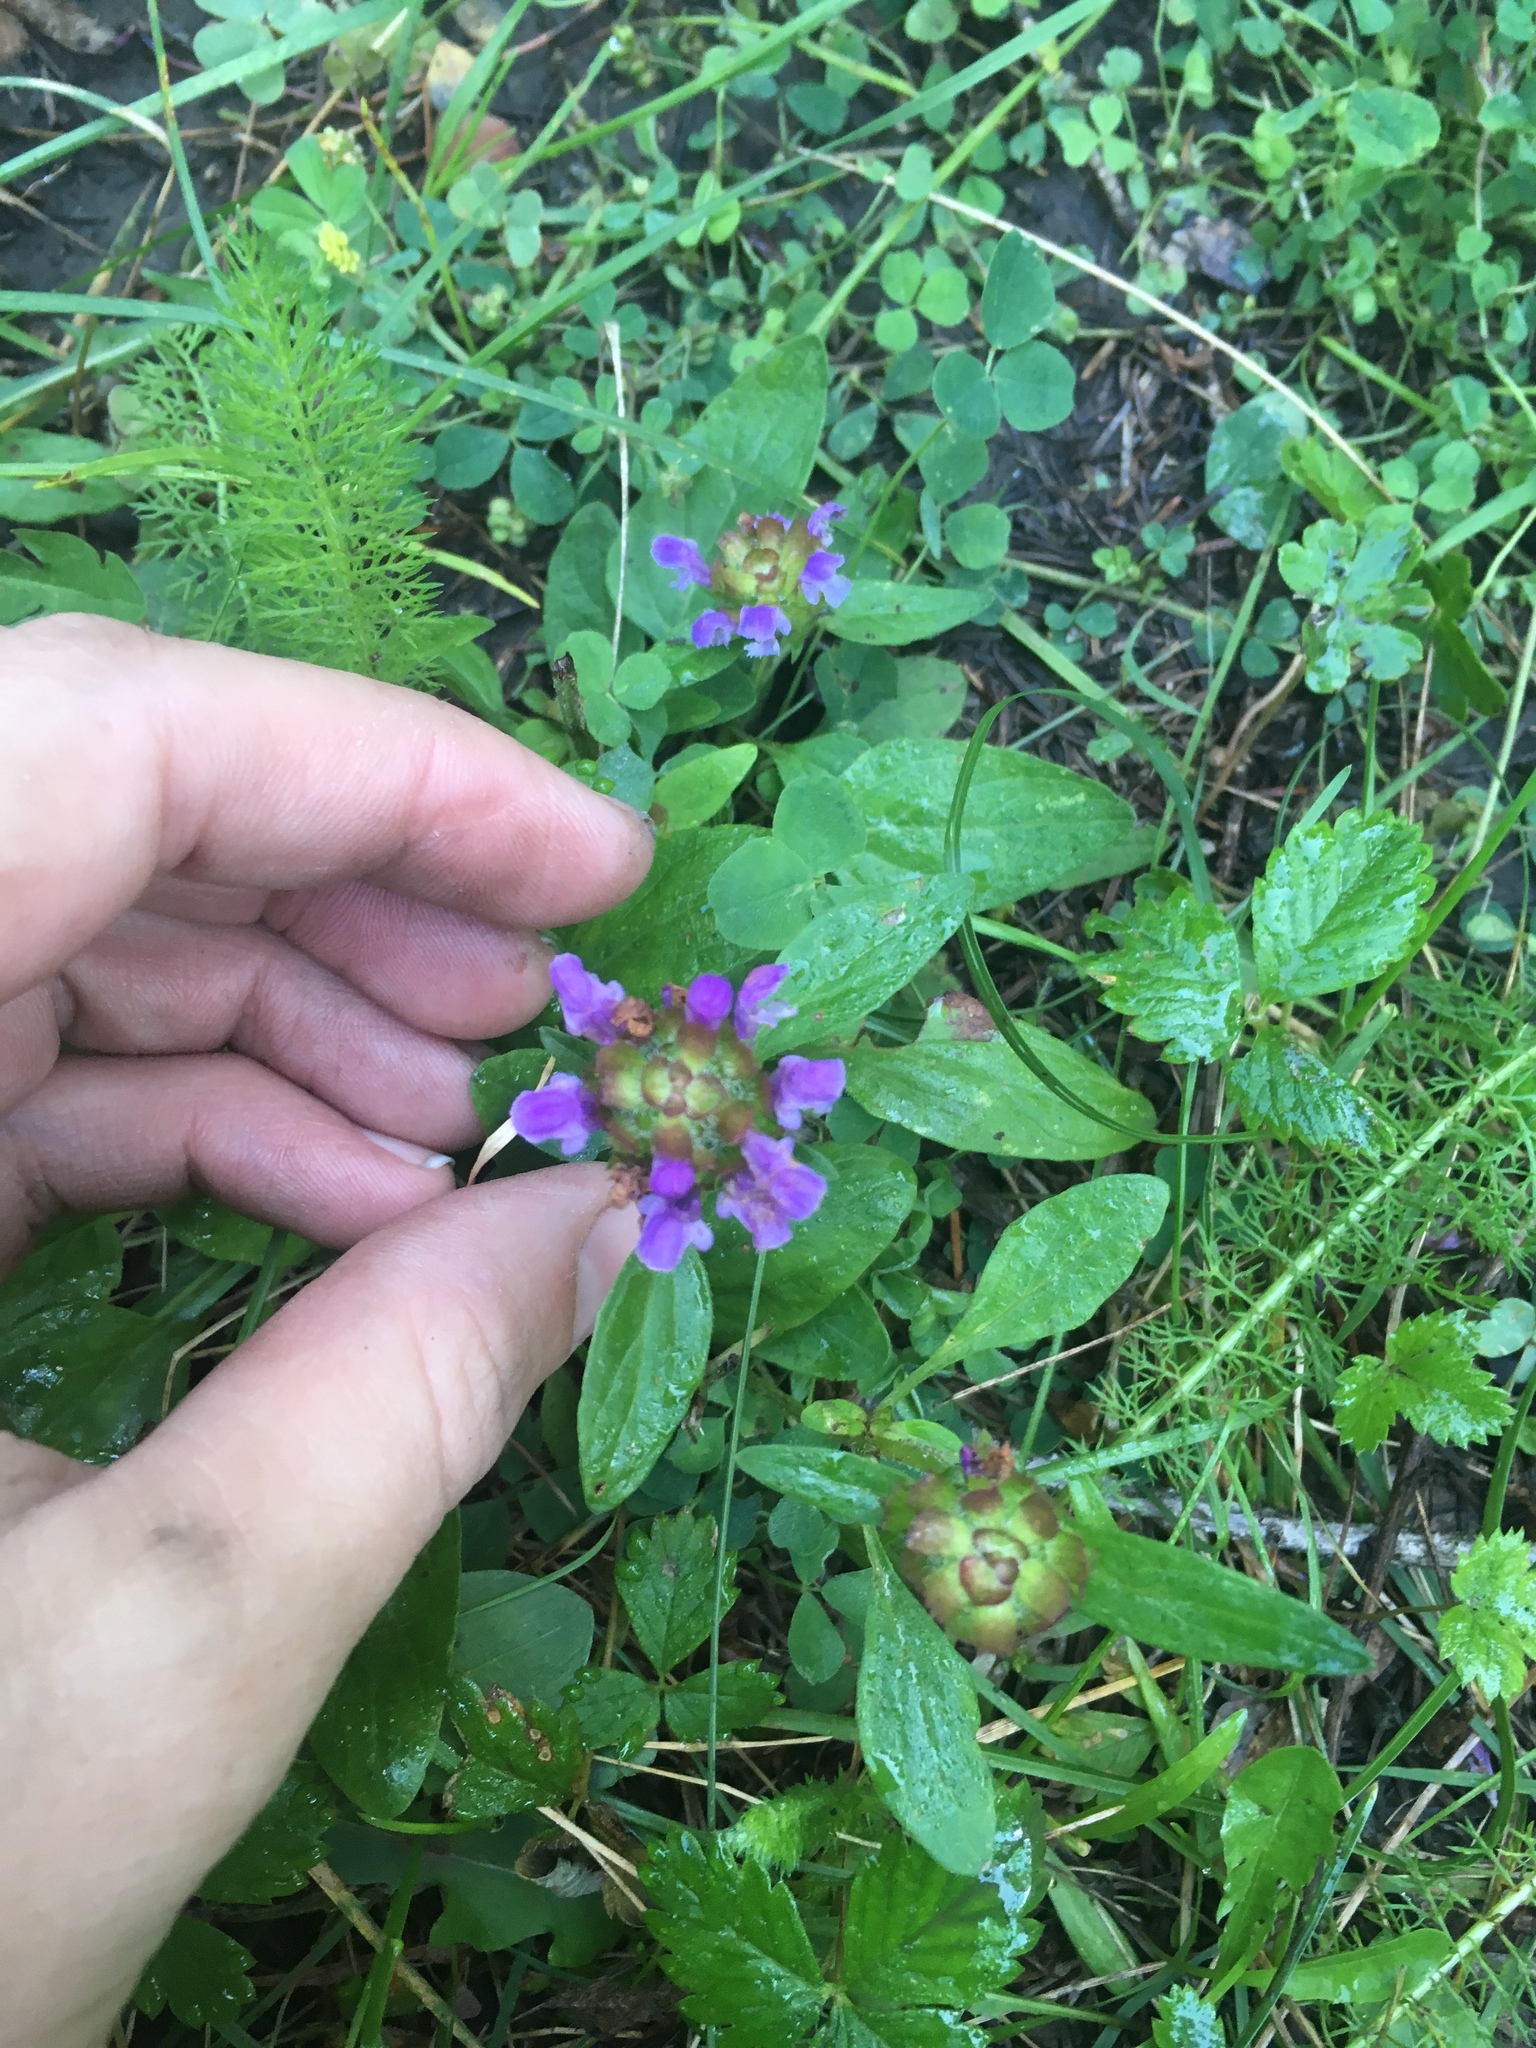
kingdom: Plantae
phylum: Tracheophyta
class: Magnoliopsida
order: Lamiales
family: Lamiaceae
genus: Prunella
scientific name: Prunella vulgaris
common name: Heal-all
